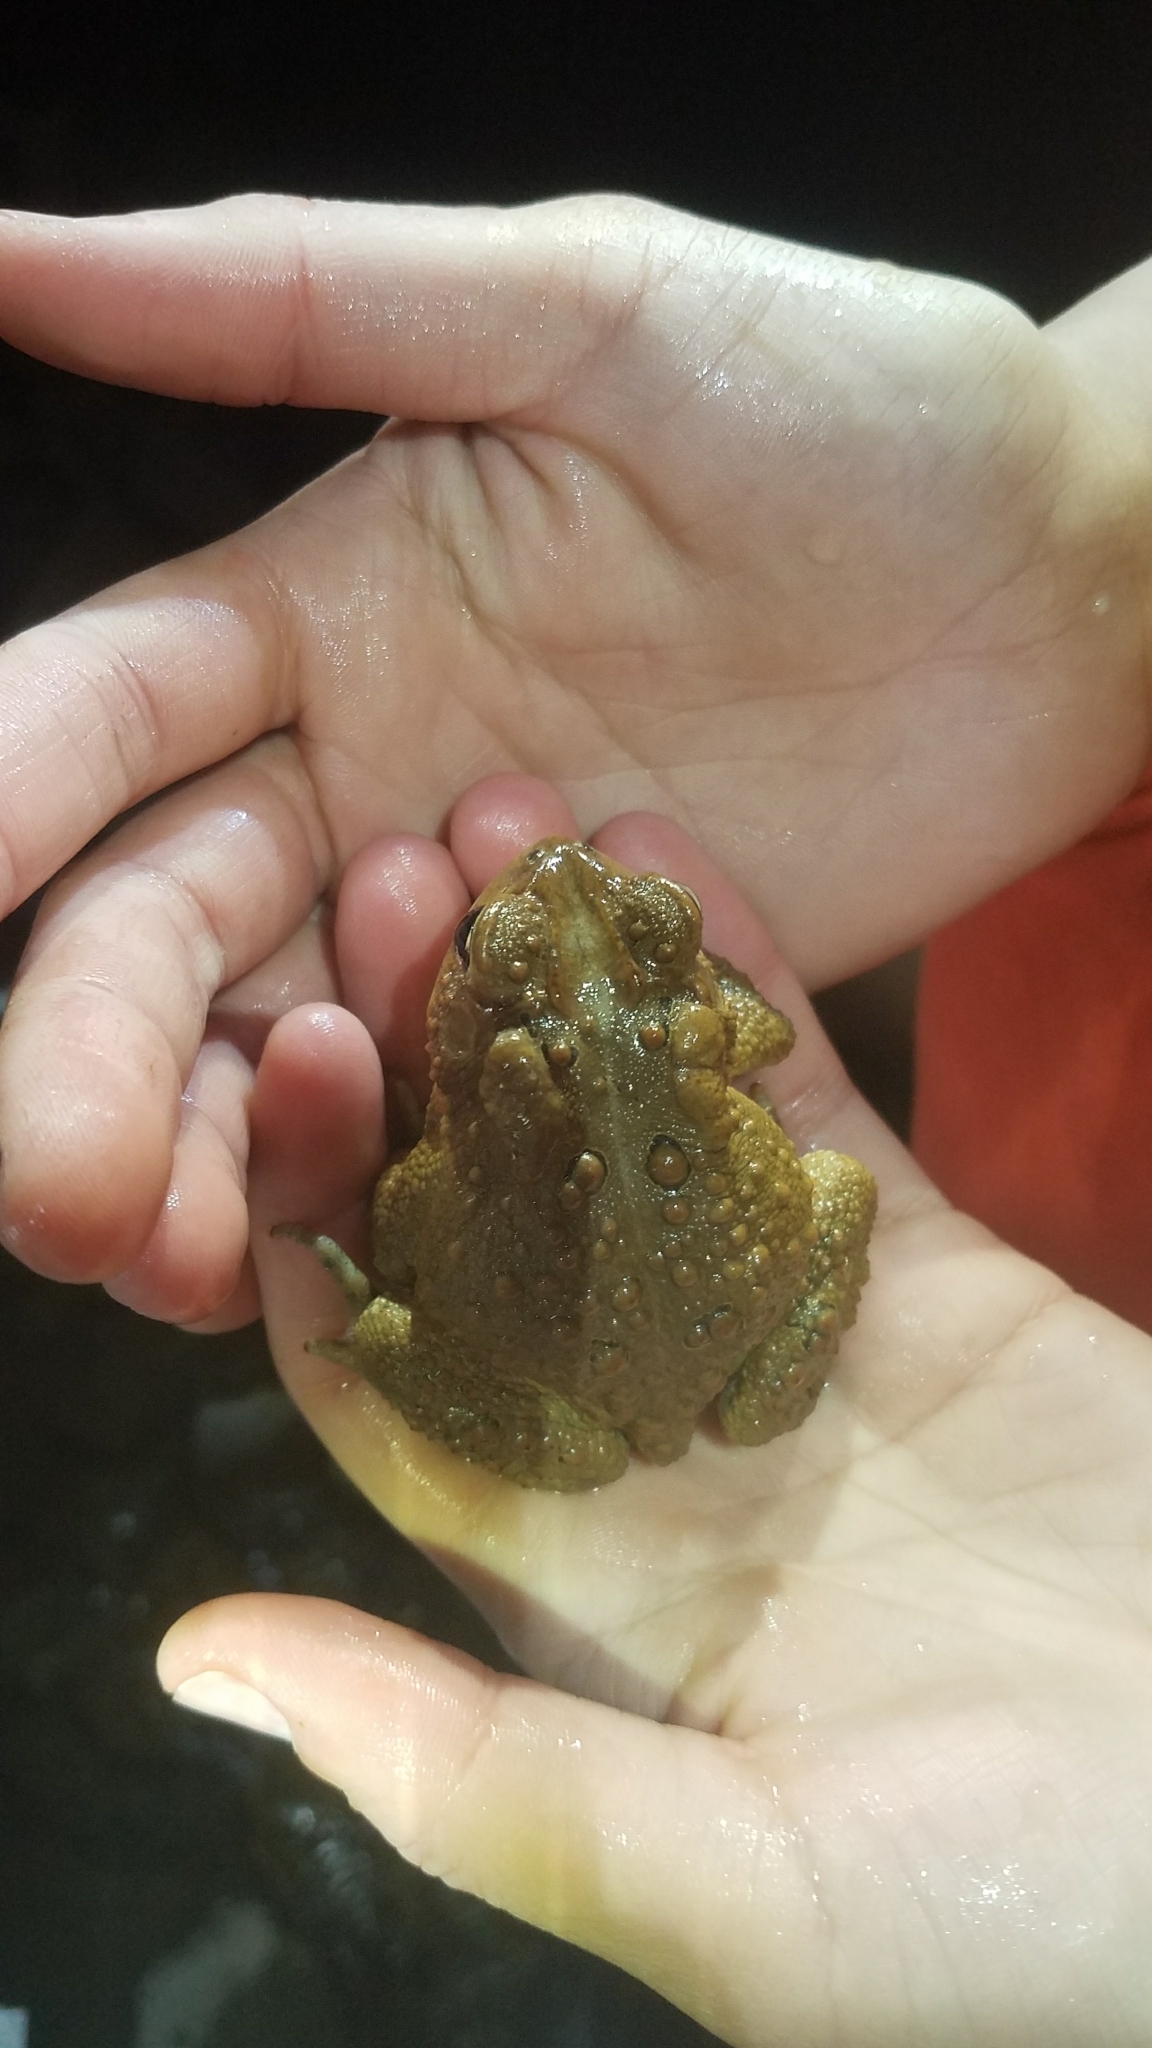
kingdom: Animalia
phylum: Chordata
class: Amphibia
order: Anura
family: Bufonidae
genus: Anaxyrus
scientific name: Anaxyrus americanus
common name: American toad
